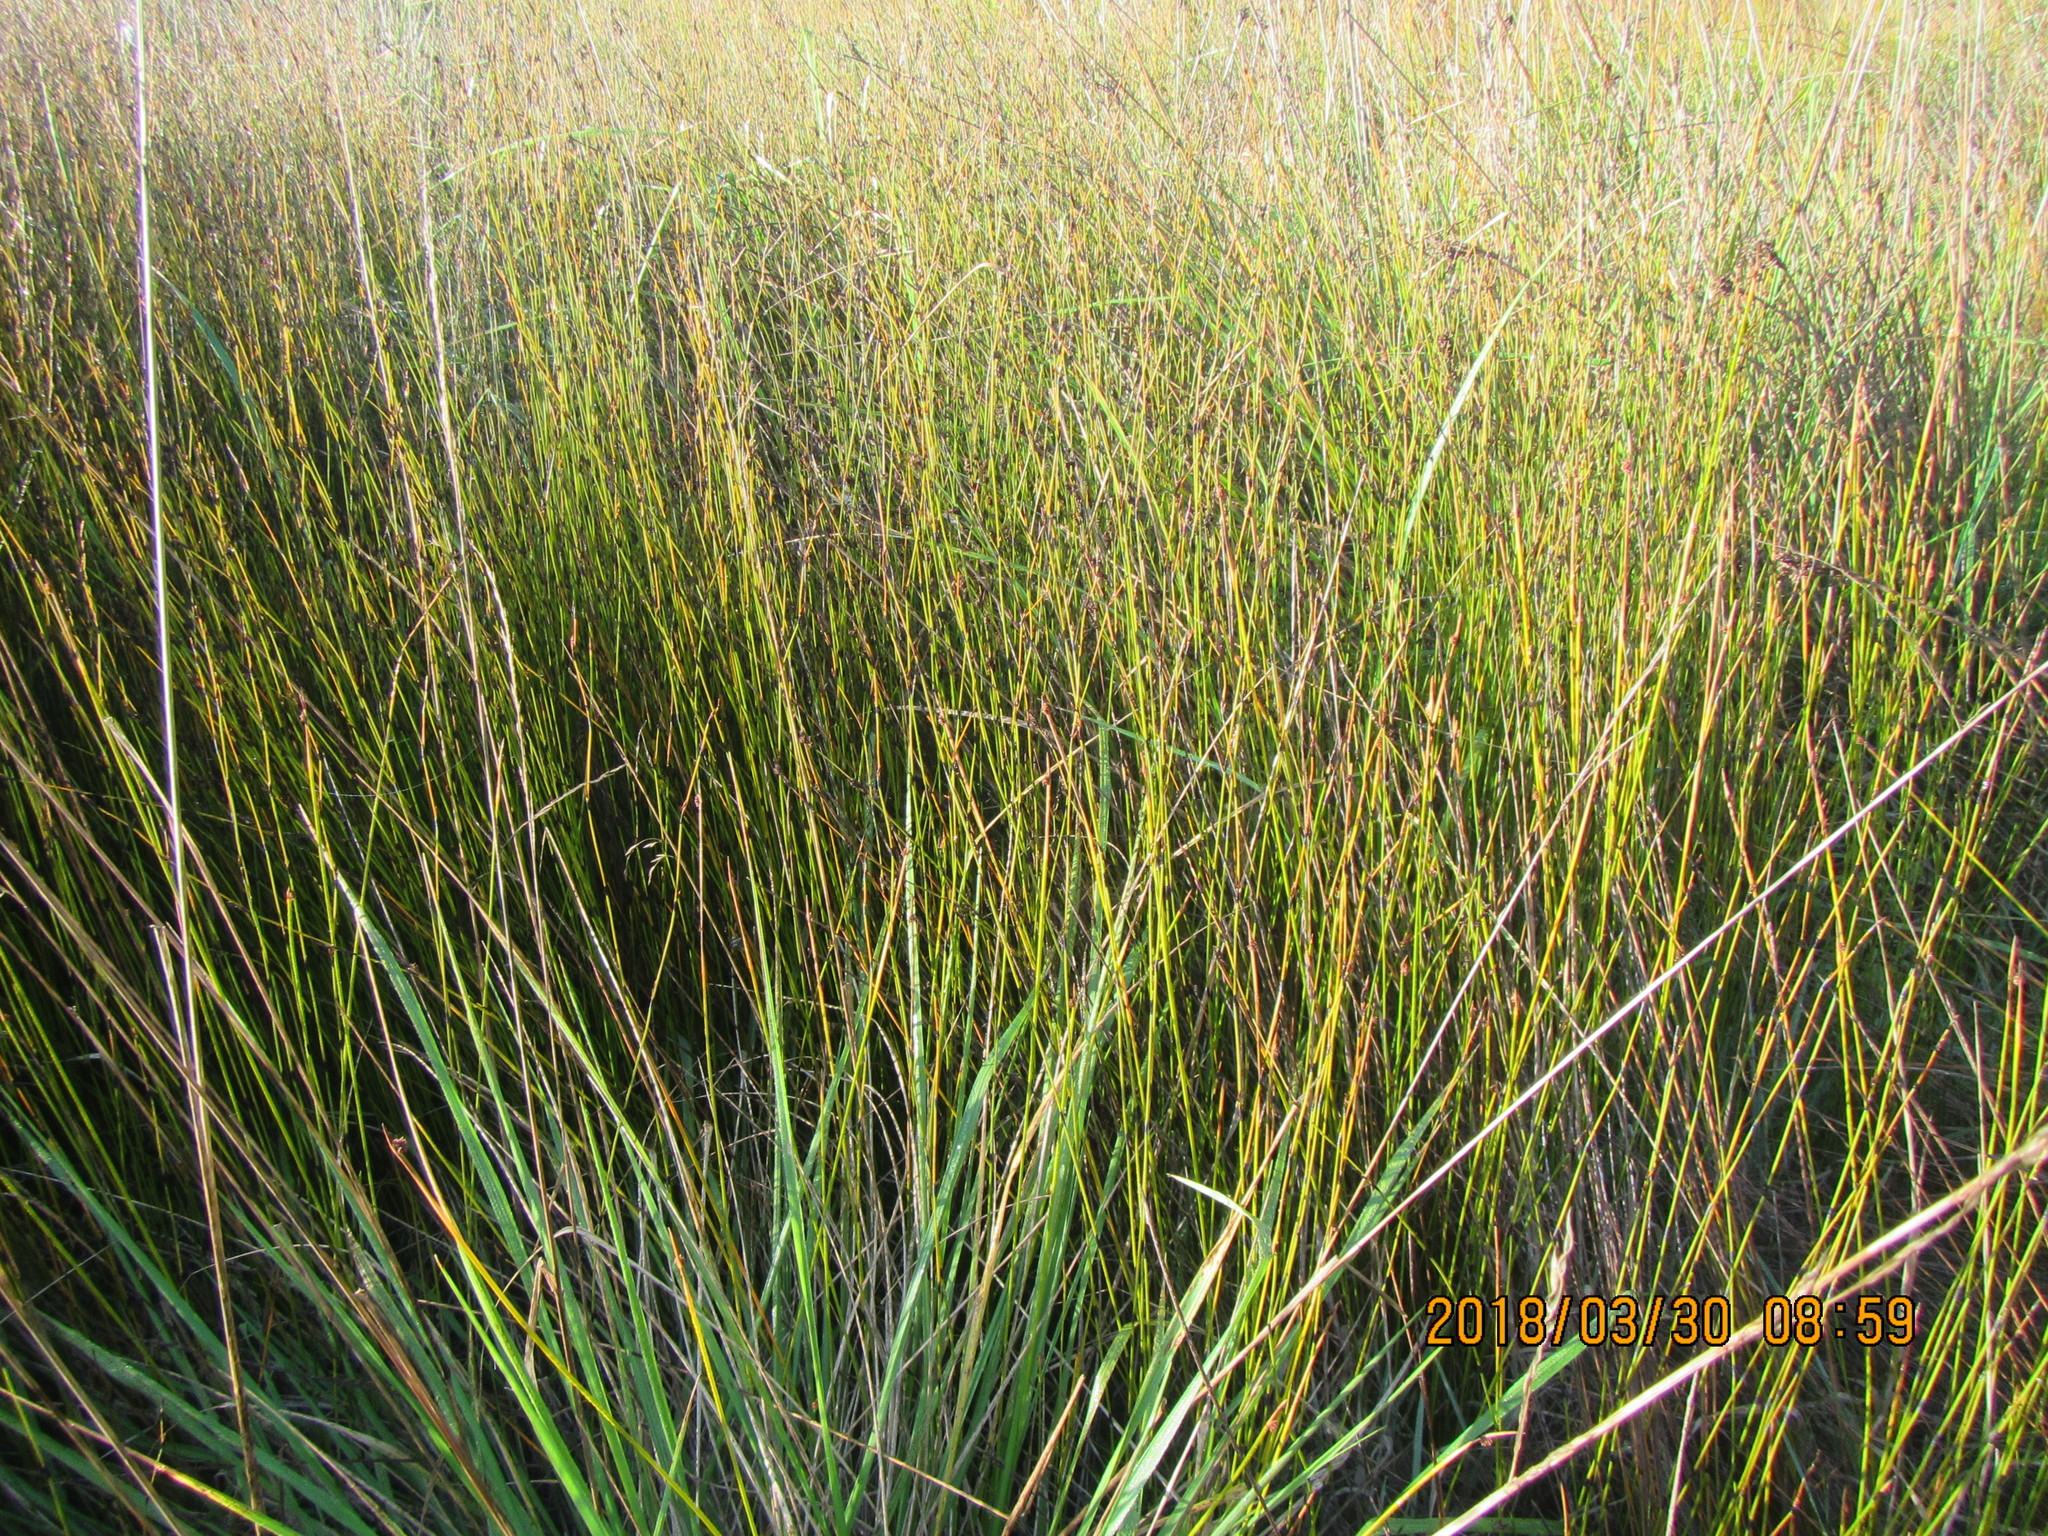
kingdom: Plantae
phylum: Tracheophyta
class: Liliopsida
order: Poales
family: Restionaceae
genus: Apodasmia
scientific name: Apodasmia similis
